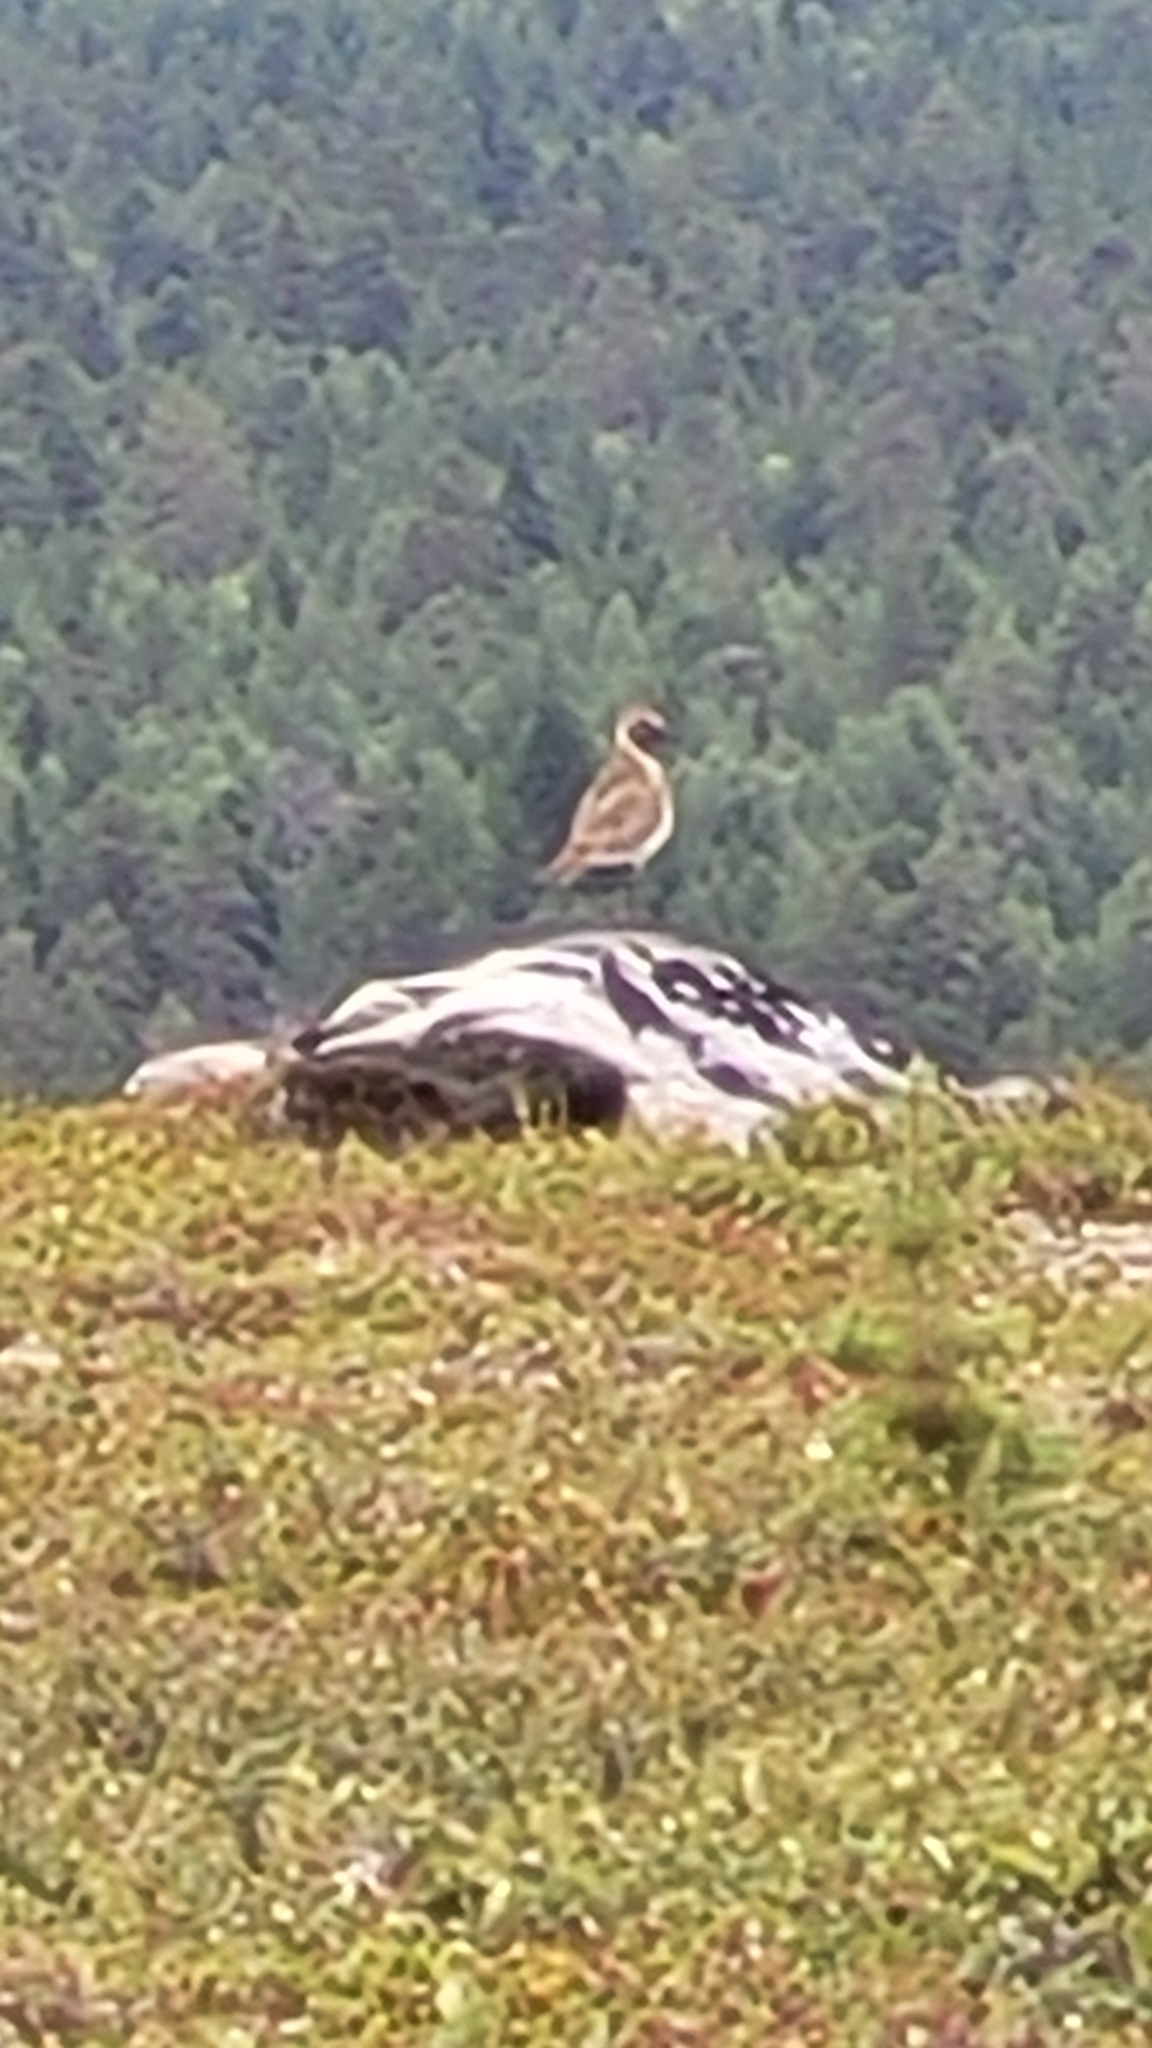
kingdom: Animalia
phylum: Chordata
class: Aves
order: Charadriiformes
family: Charadriidae
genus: Pluvialis
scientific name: Pluvialis apricaria
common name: European golden plover
